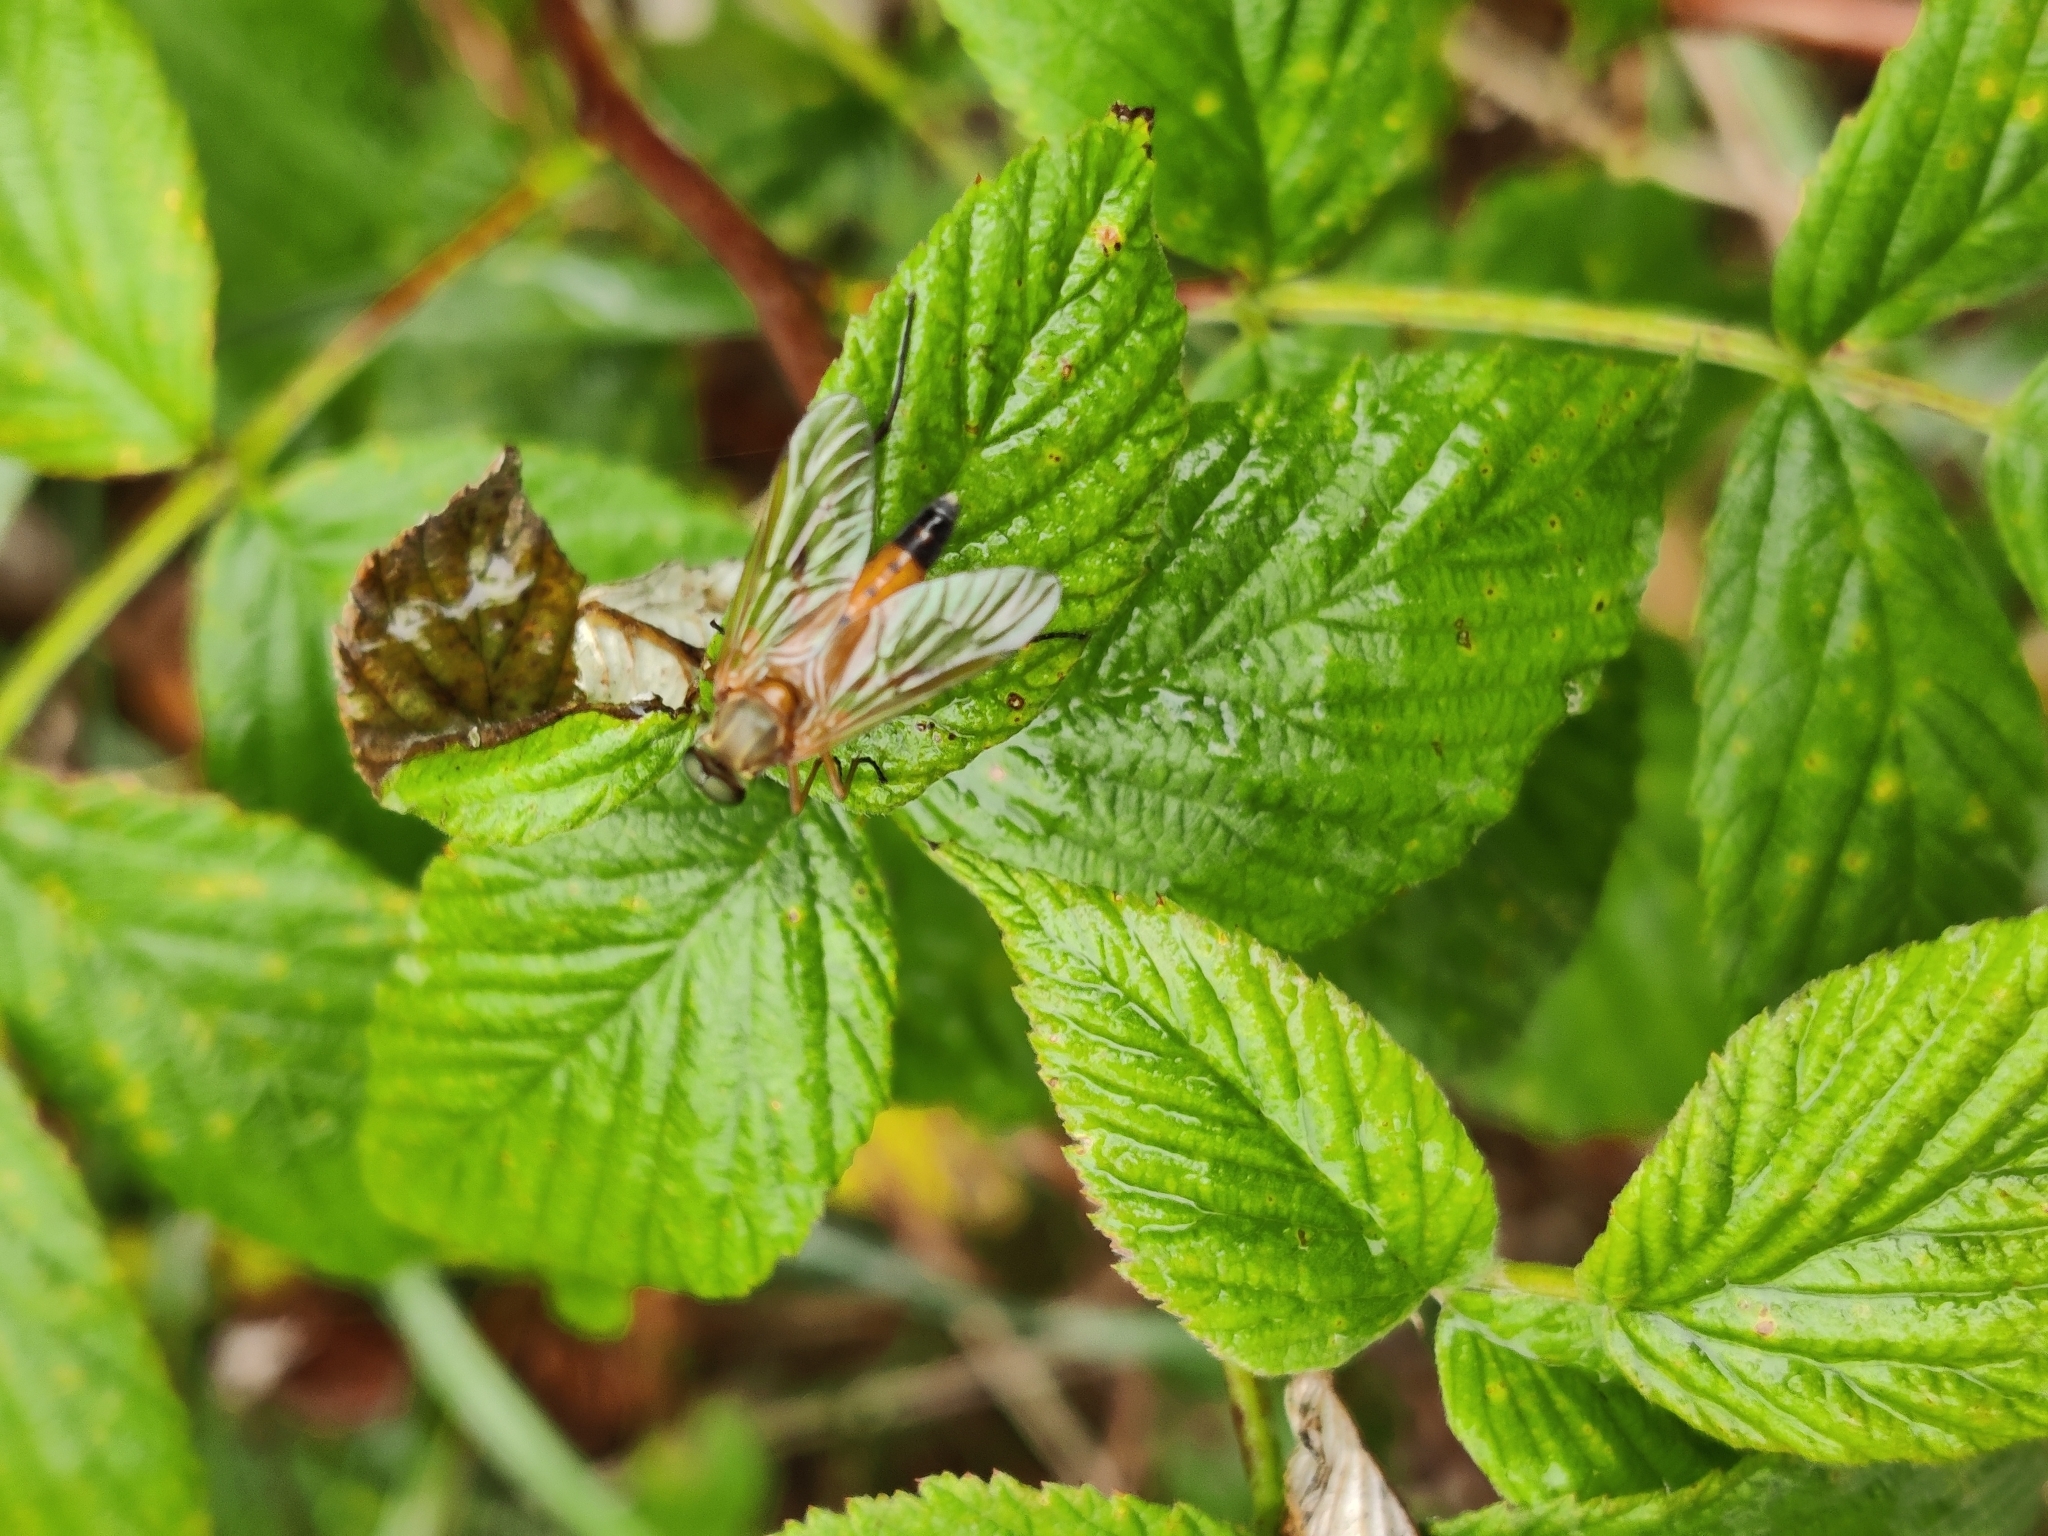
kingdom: Animalia
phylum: Arthropoda
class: Insecta
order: Diptera
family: Rhagionidae
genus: Rhagio
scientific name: Rhagio tringaria
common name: Marsh snipefly
